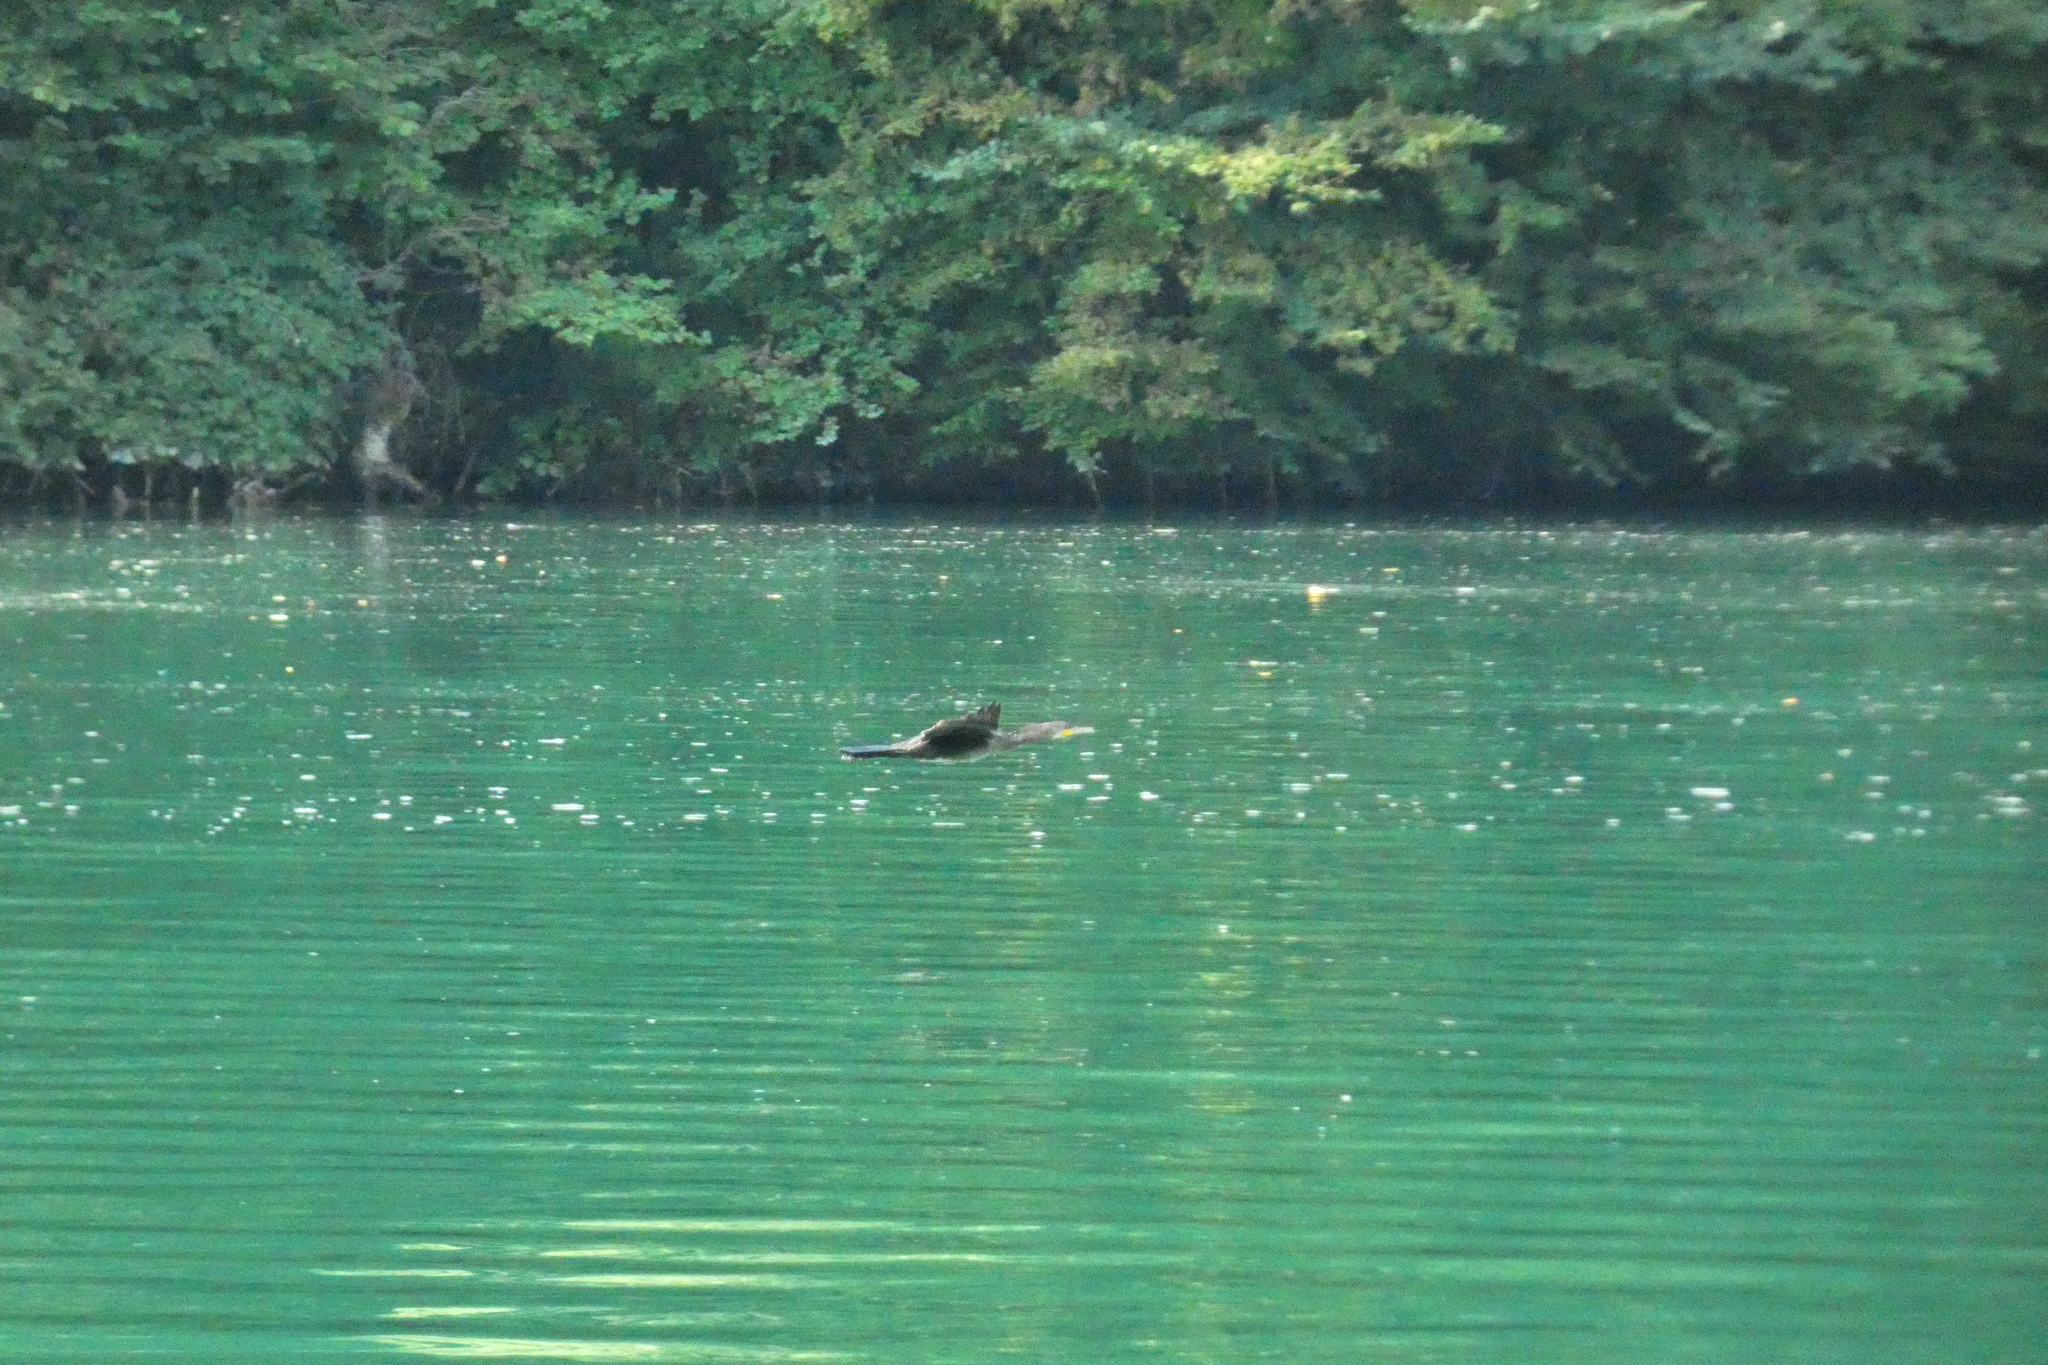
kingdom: Animalia
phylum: Chordata
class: Aves
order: Suliformes
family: Phalacrocoracidae
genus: Phalacrocorax
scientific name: Phalacrocorax carbo
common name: Great cormorant
